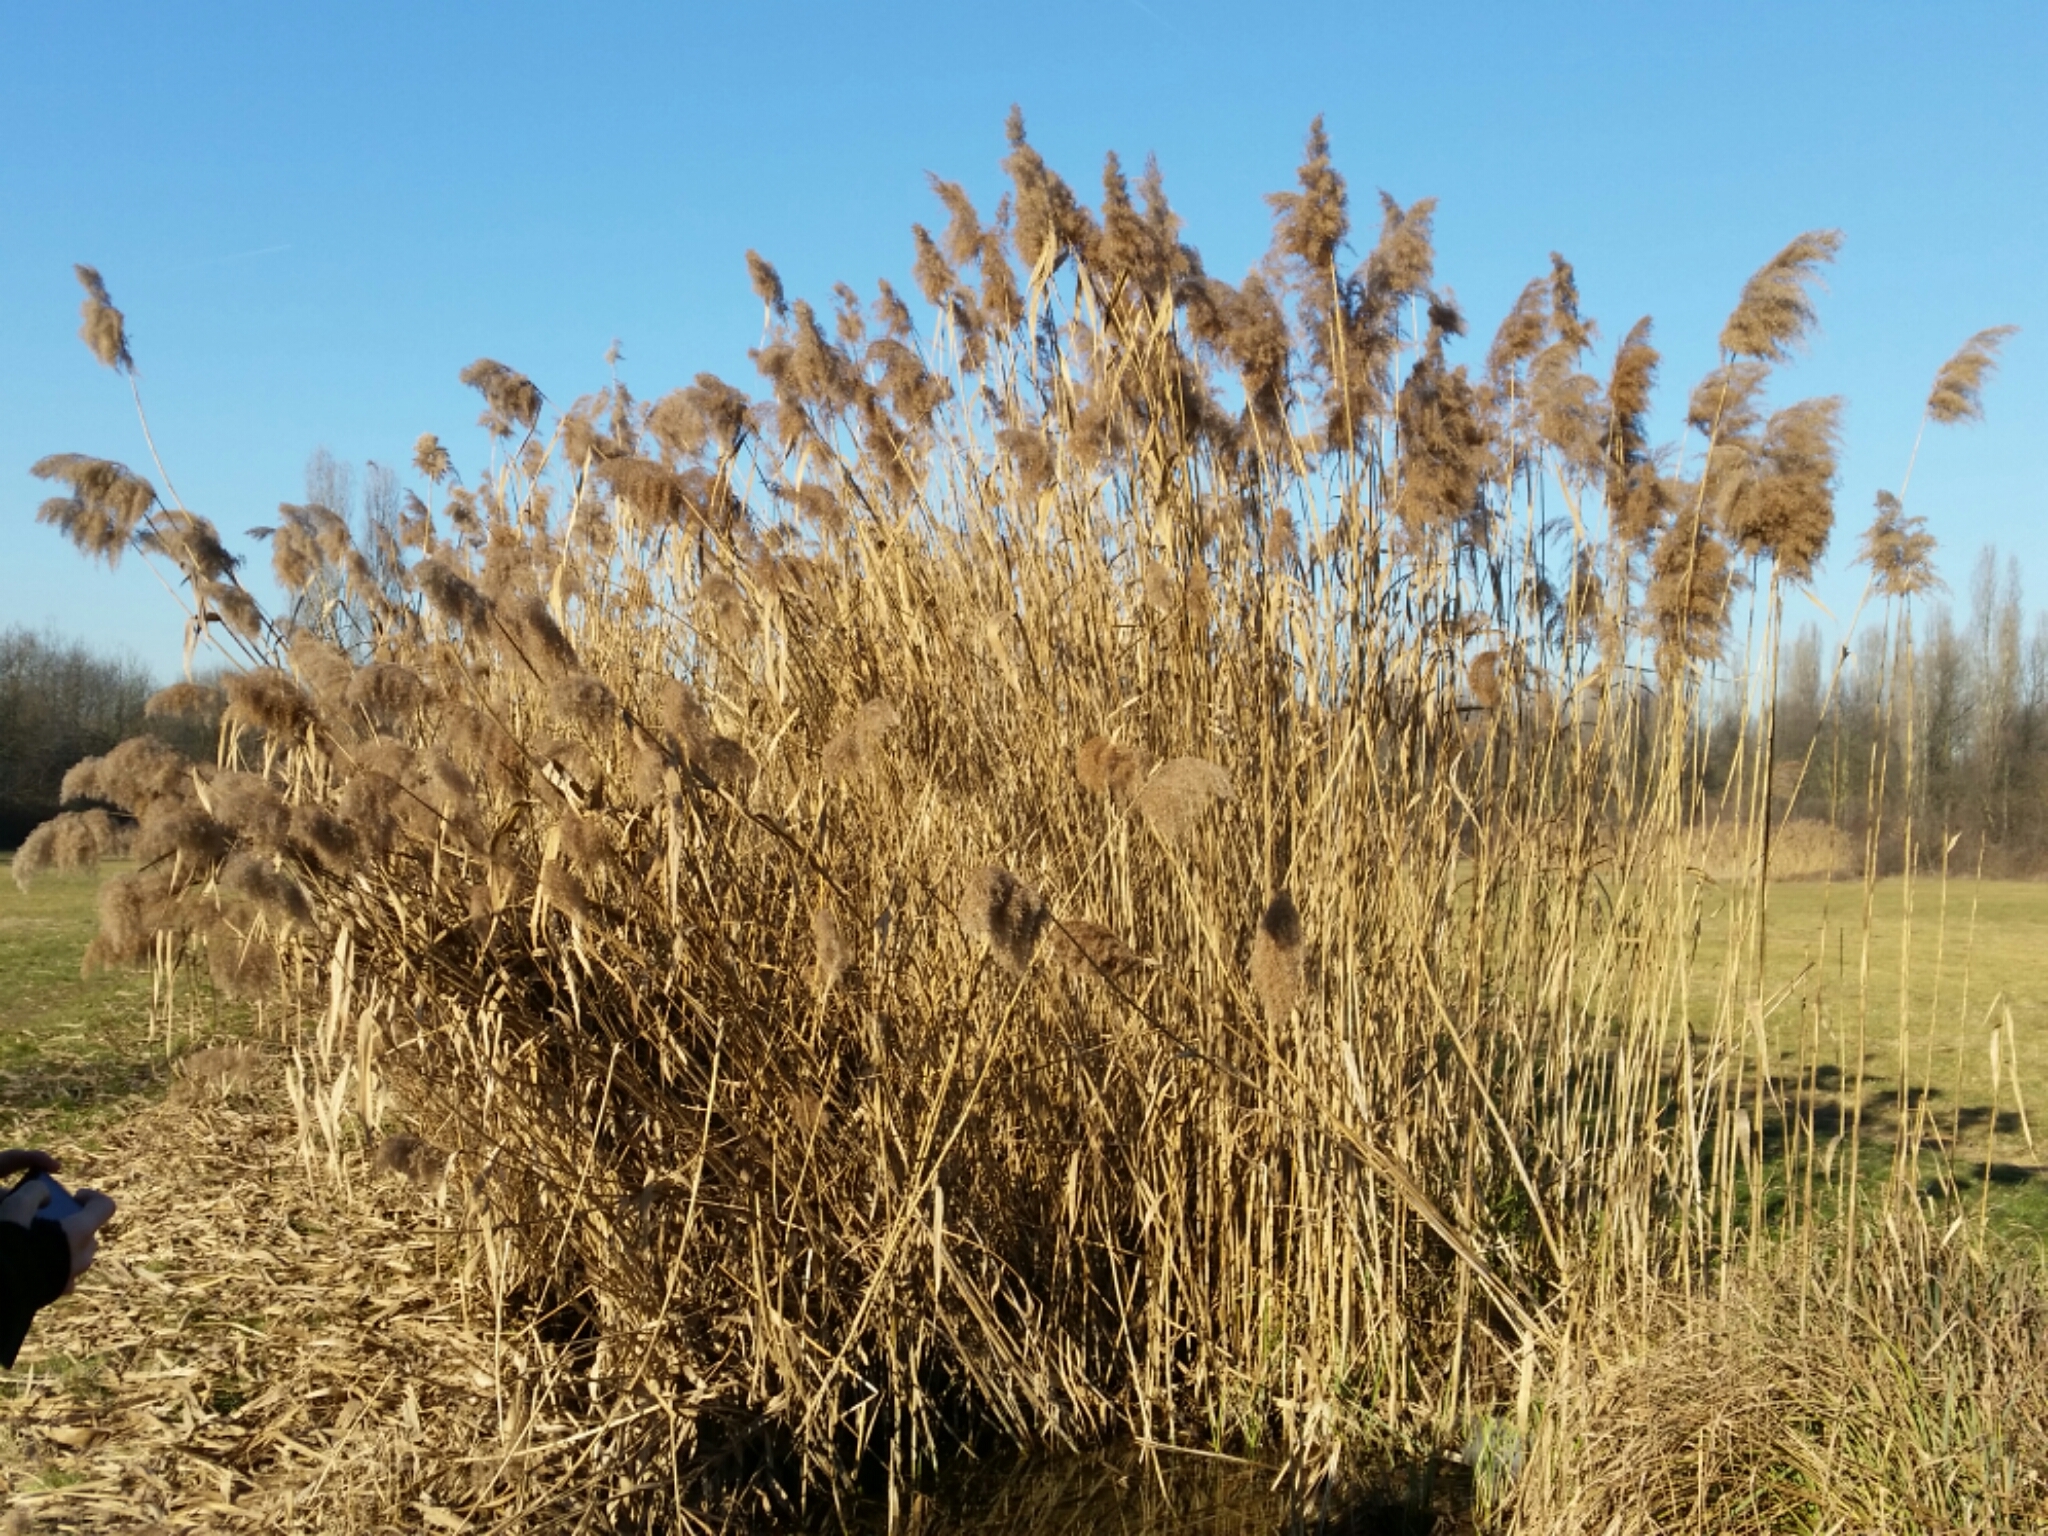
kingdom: Plantae
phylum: Tracheophyta
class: Liliopsida
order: Poales
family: Poaceae
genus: Phragmites
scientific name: Phragmites australis
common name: Common reed
